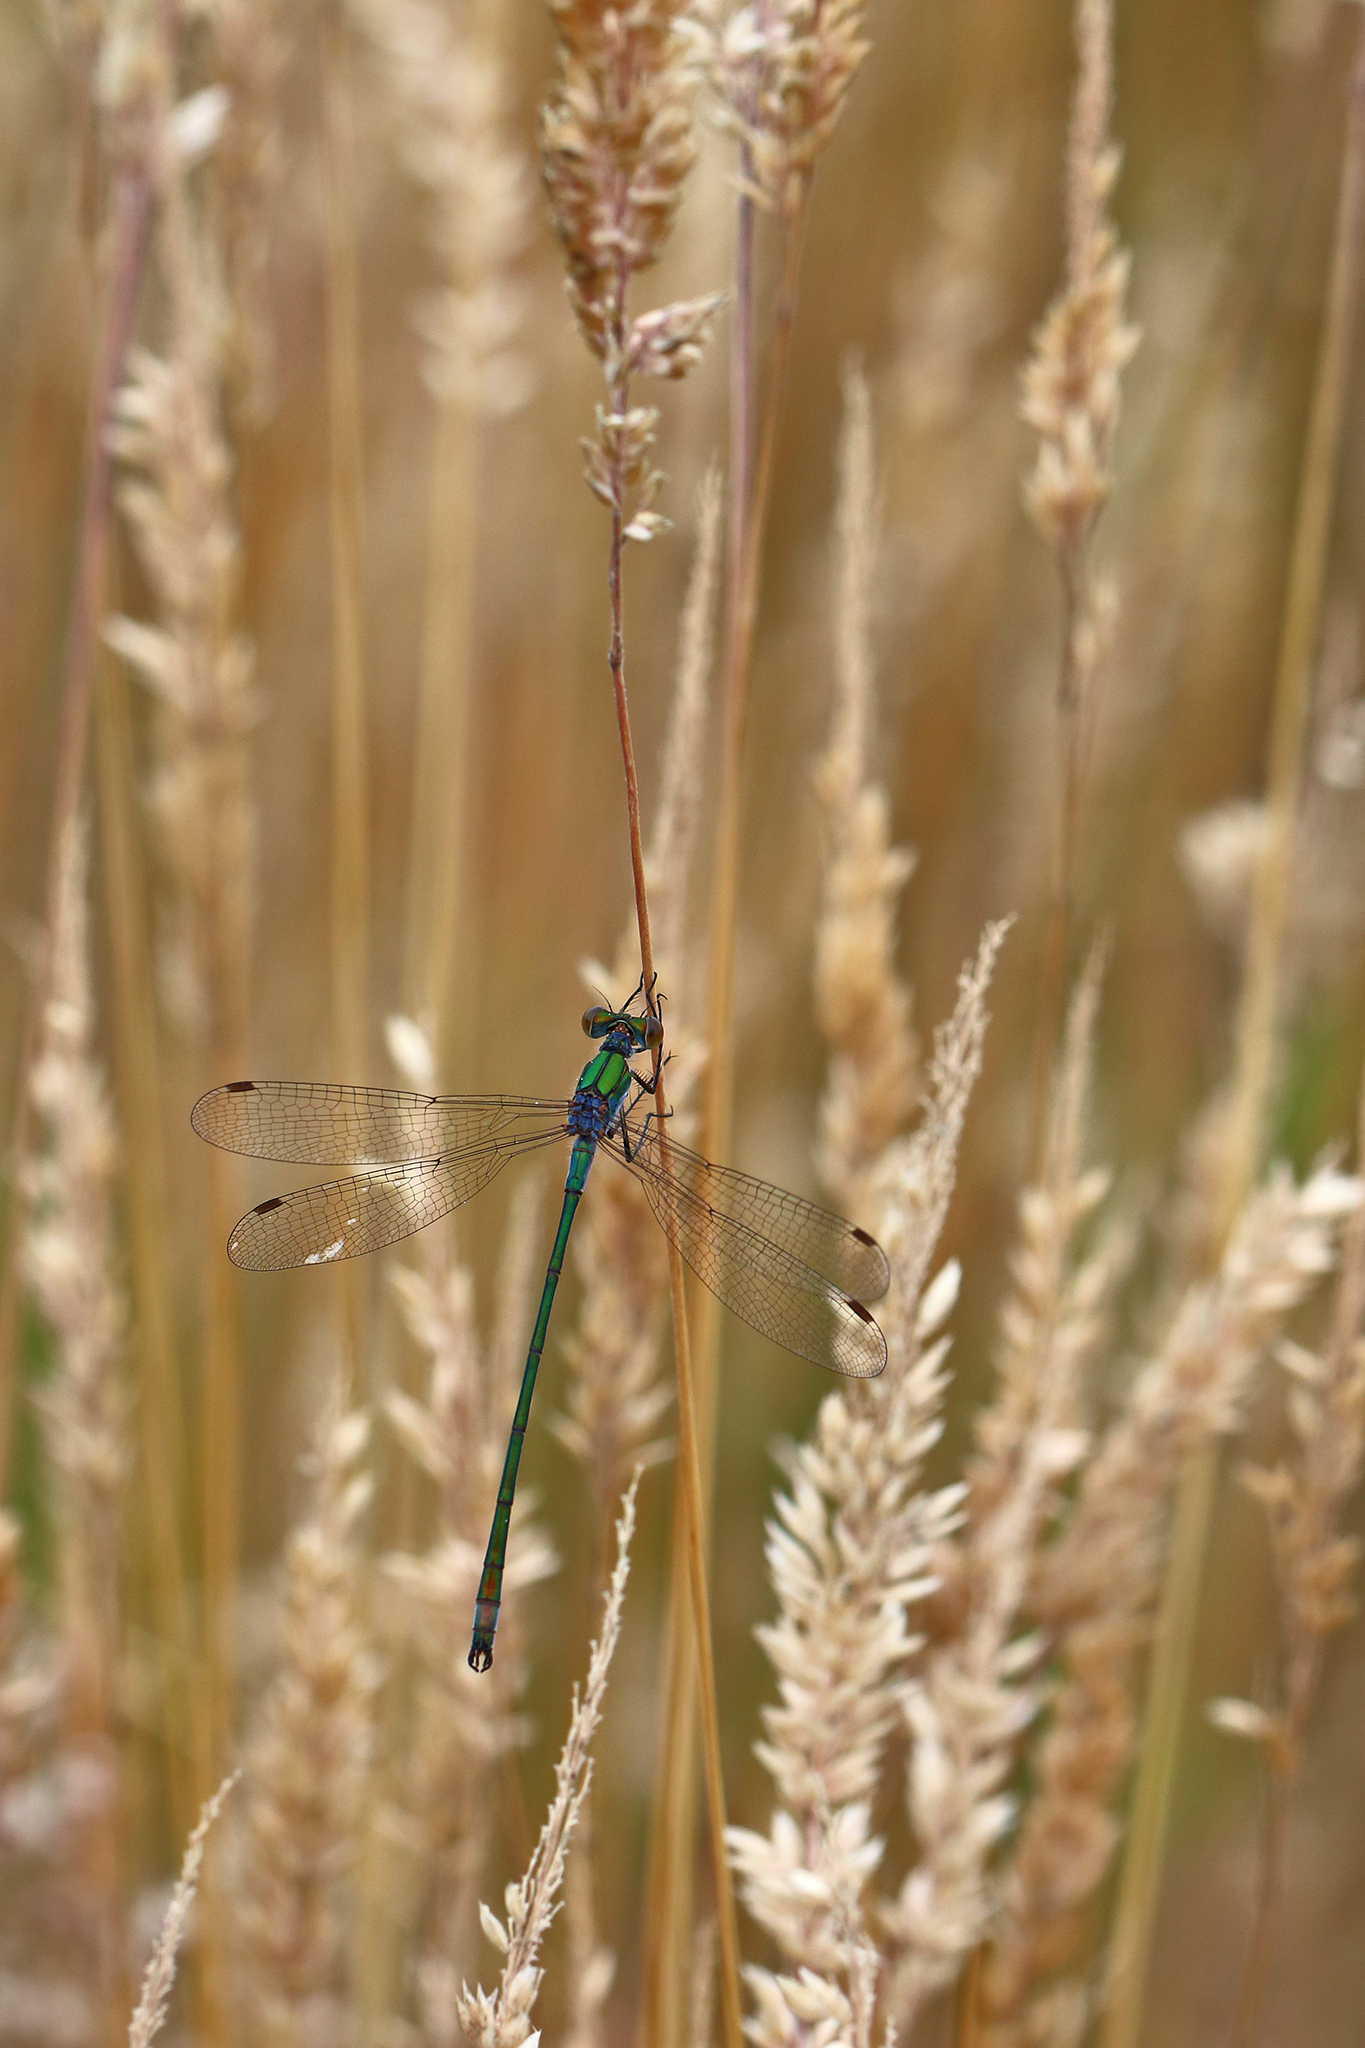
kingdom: Animalia
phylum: Arthropoda
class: Insecta
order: Odonata
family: Lestidae
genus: Lestes
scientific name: Lestes sponsa
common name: Common spreadwing
